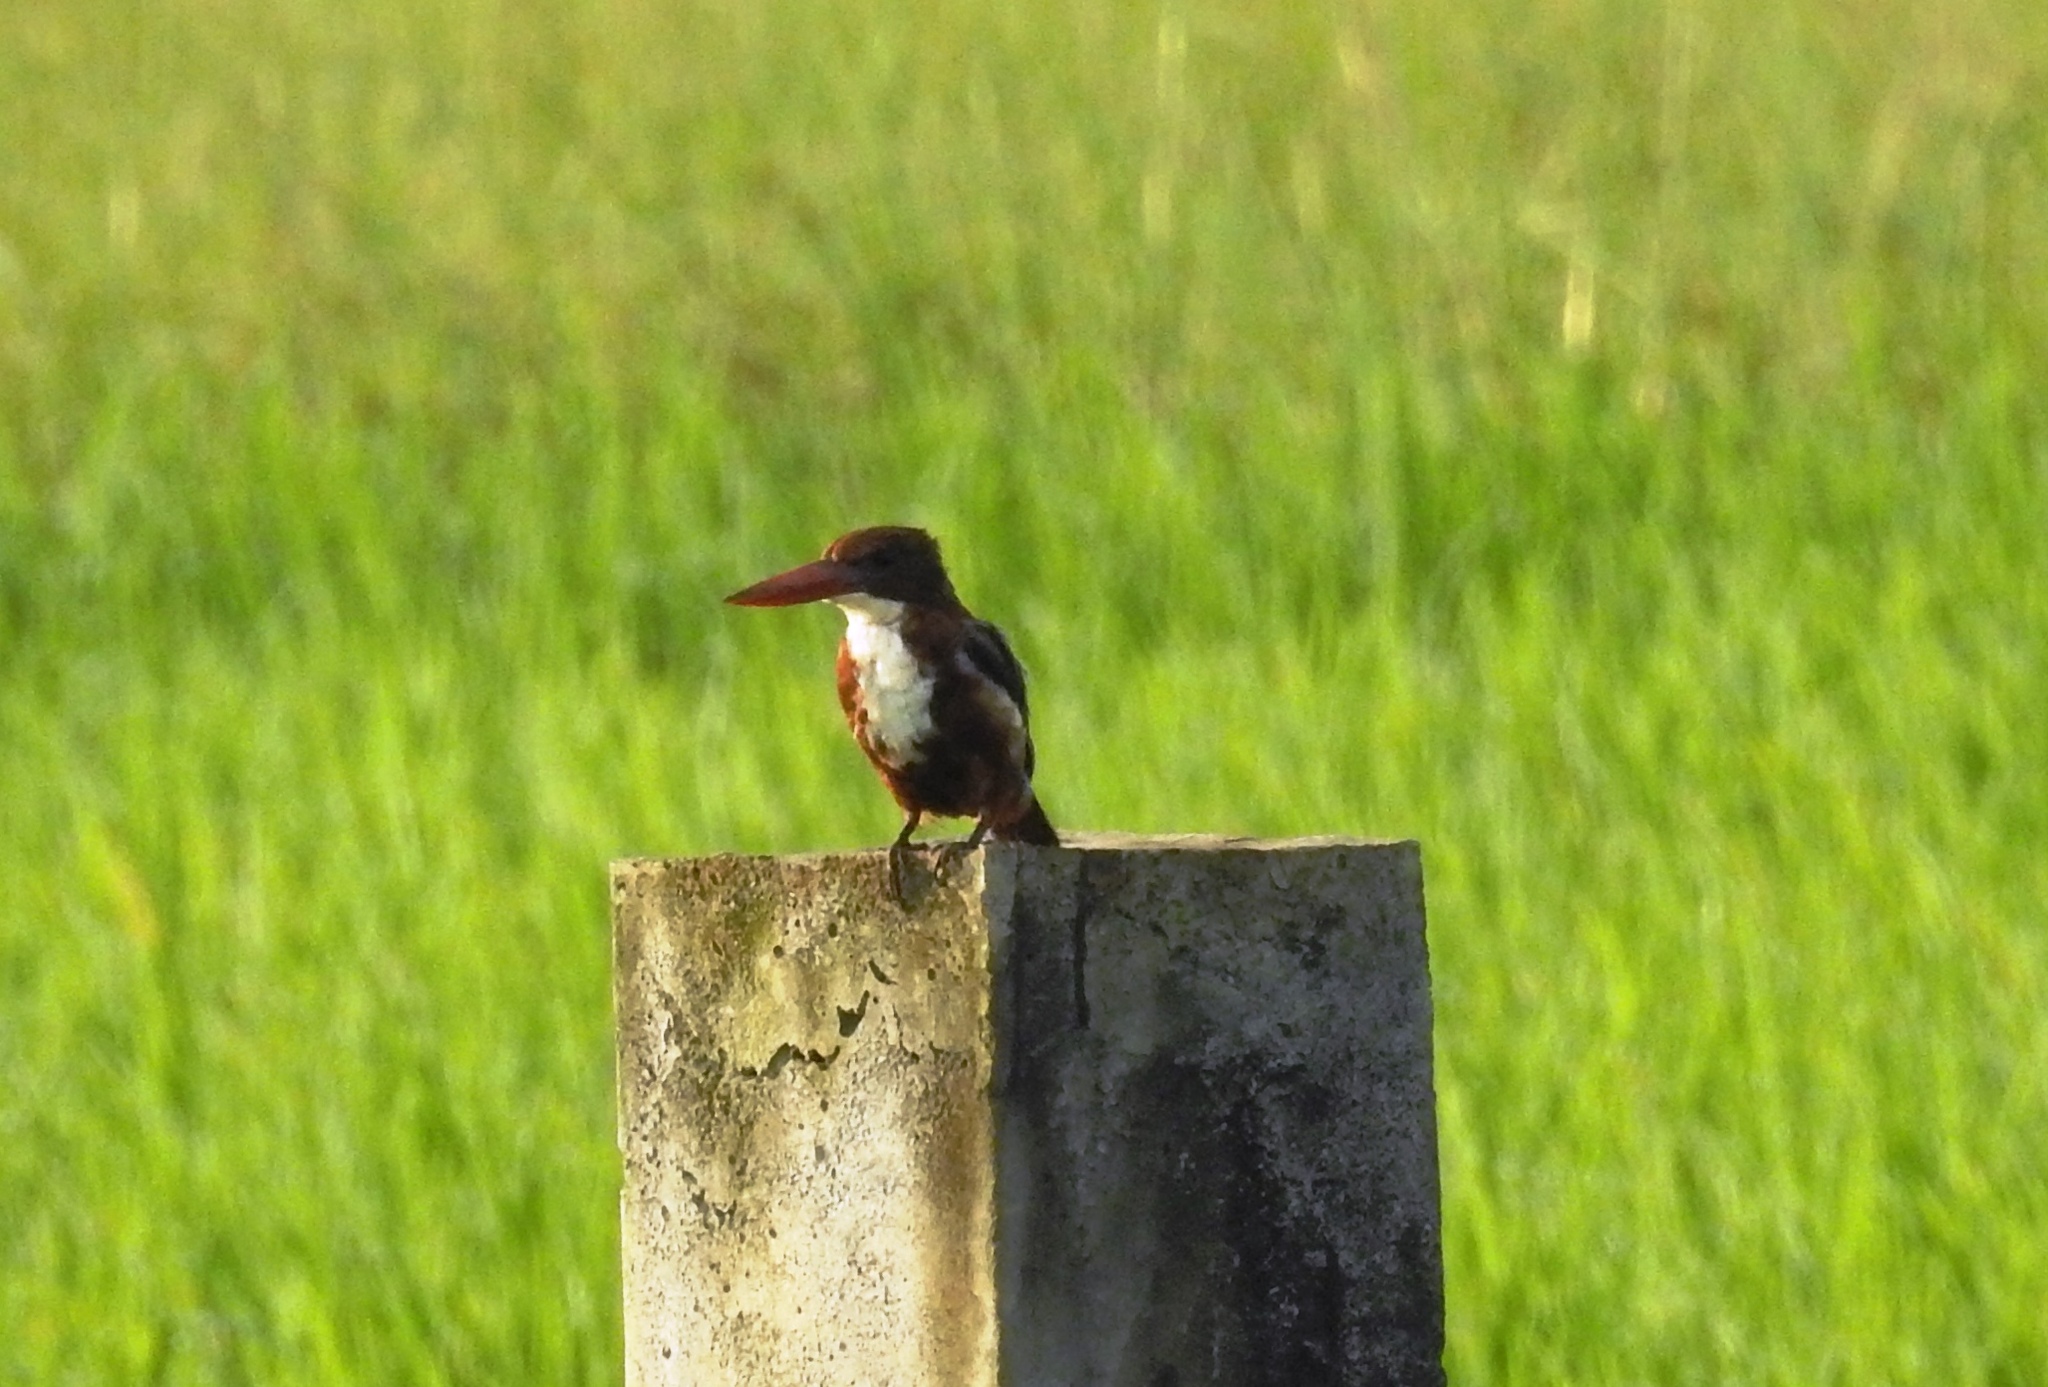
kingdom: Animalia
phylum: Chordata
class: Aves
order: Coraciiformes
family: Alcedinidae
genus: Halcyon
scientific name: Halcyon smyrnensis
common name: White-throated kingfisher
